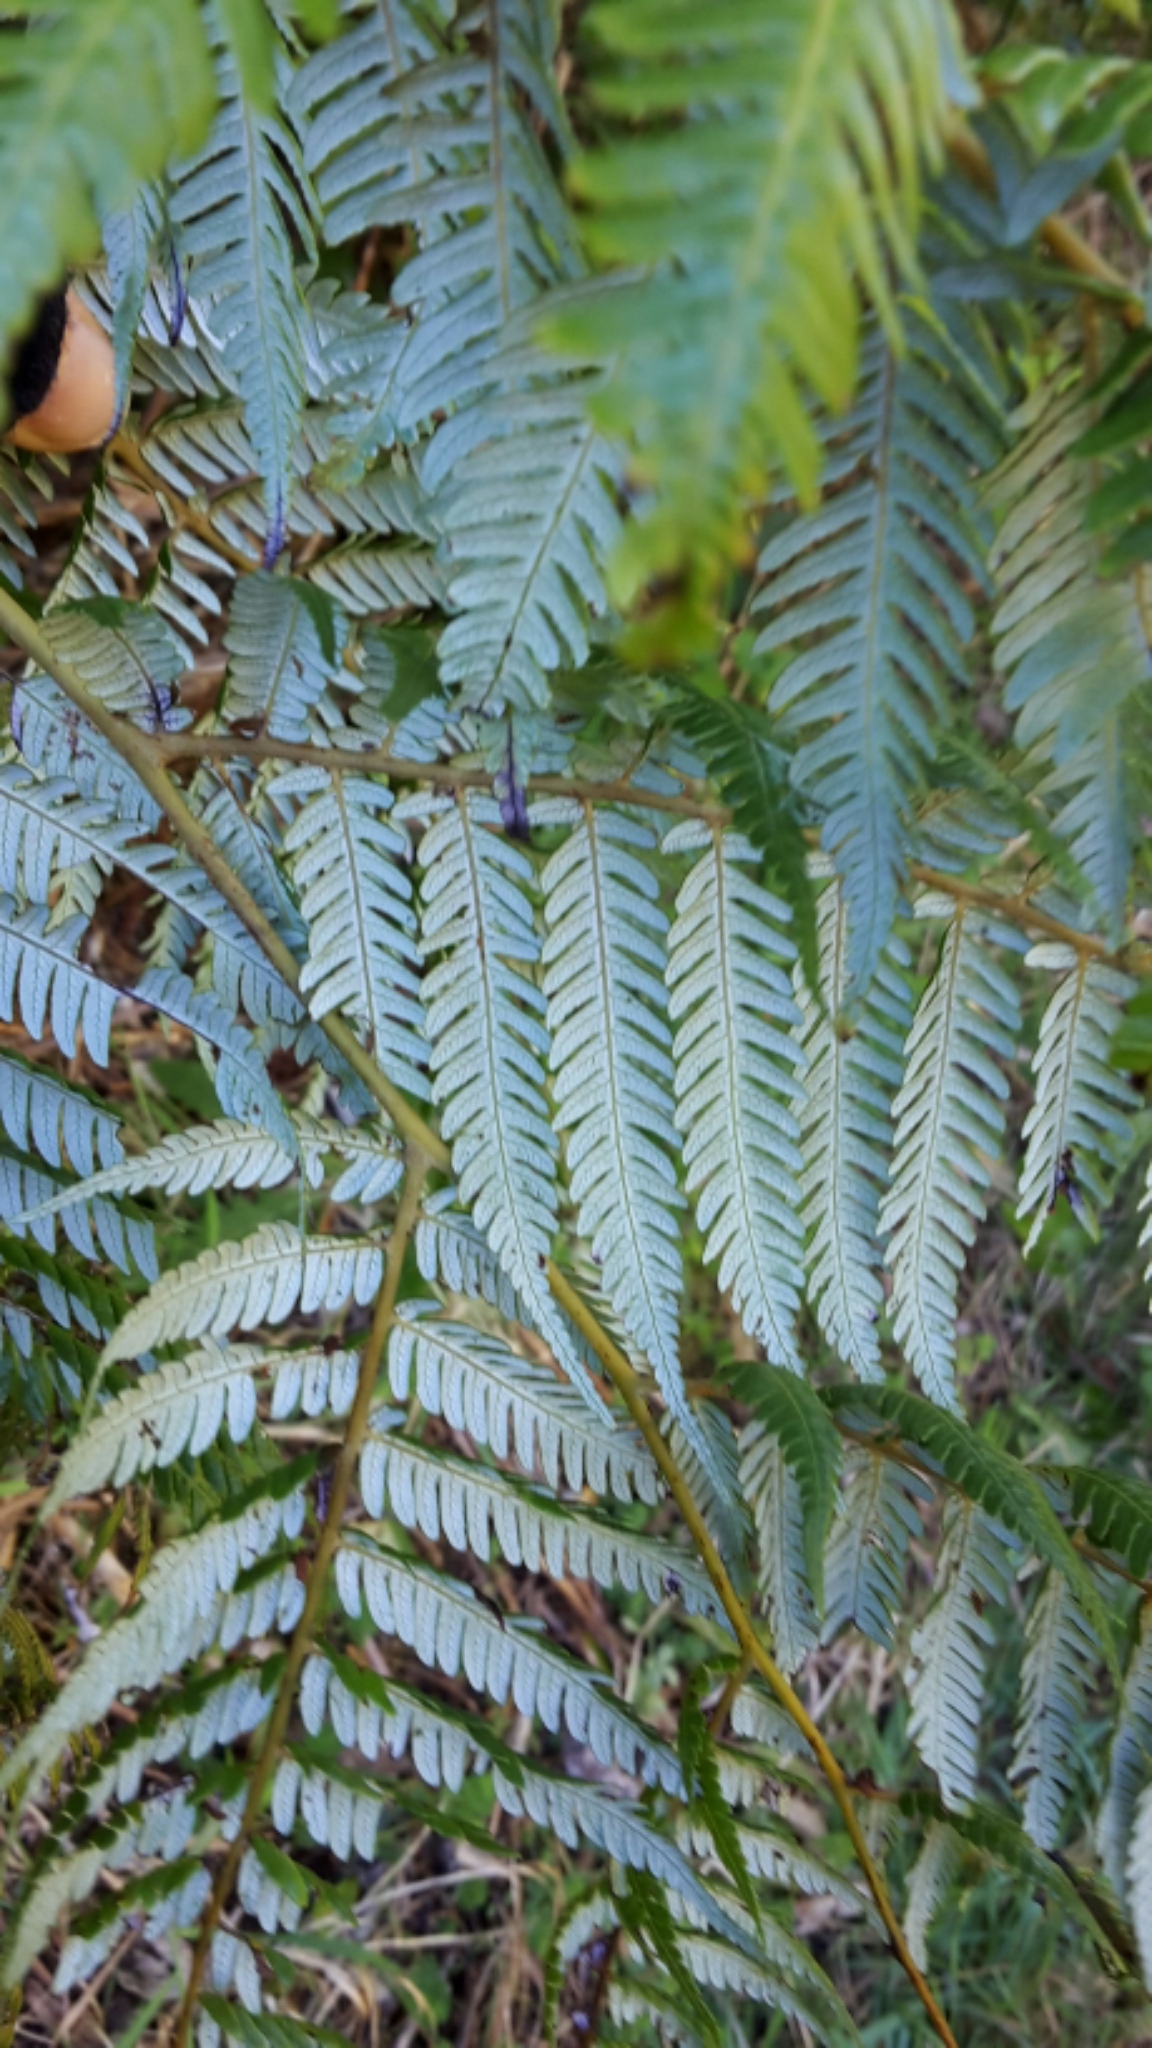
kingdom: Plantae
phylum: Tracheophyta
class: Polypodiopsida
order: Cyatheales
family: Cyatheaceae
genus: Alsophila
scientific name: Alsophila dealbata
